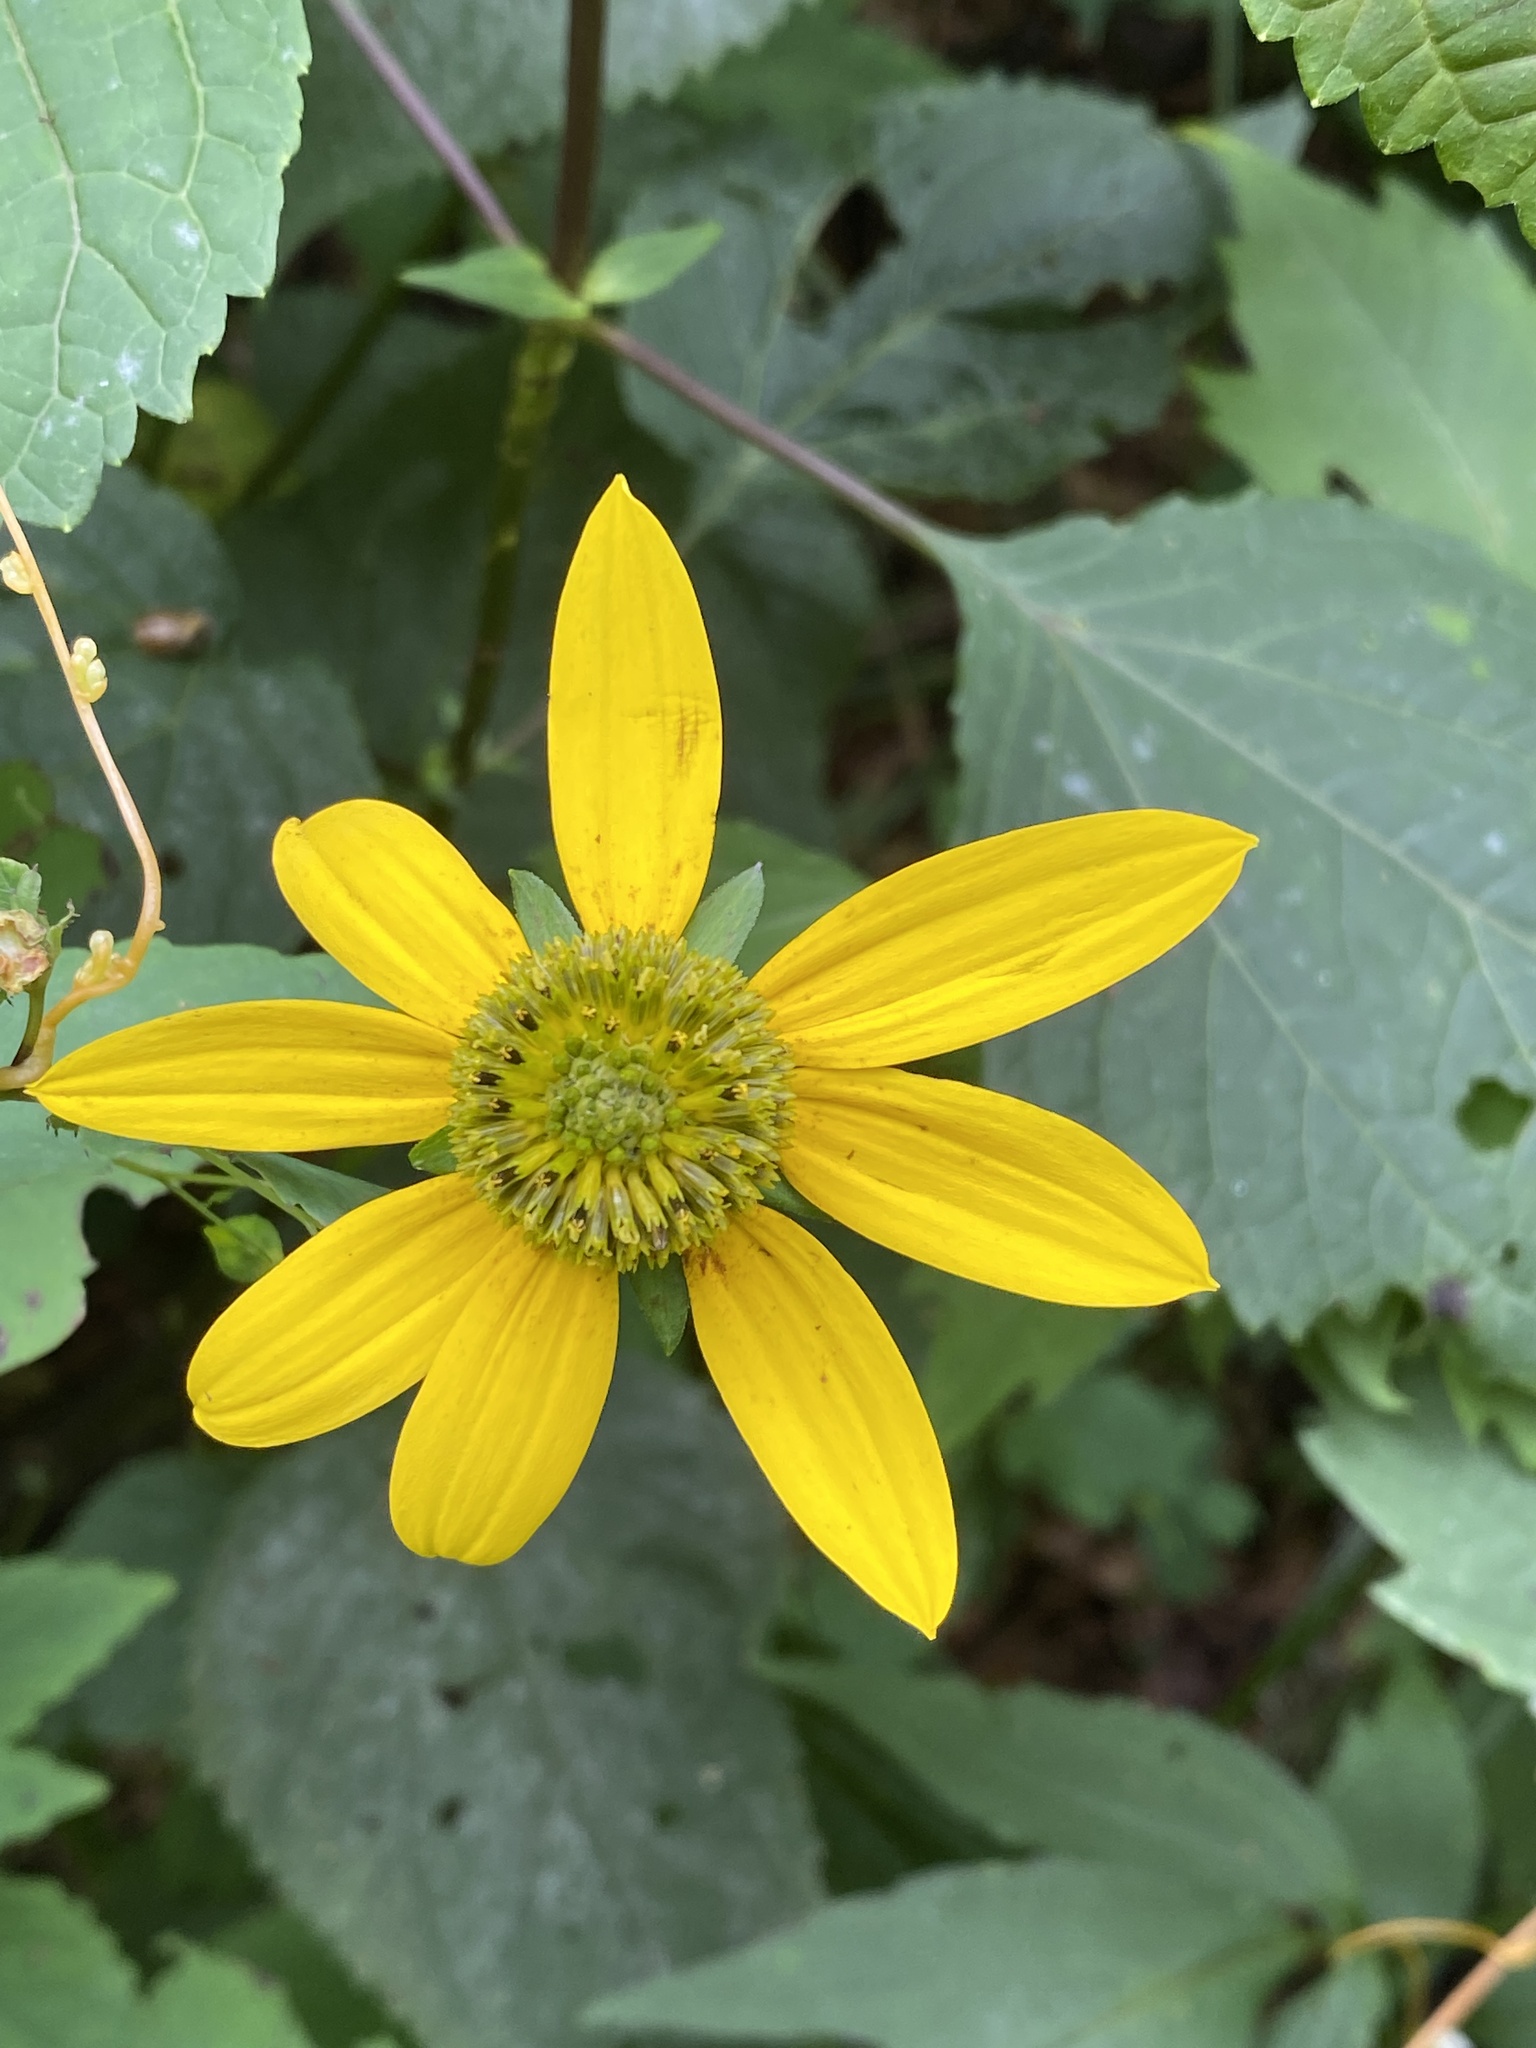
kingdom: Plantae
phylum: Tracheophyta
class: Magnoliopsida
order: Asterales
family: Asteraceae
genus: Rudbeckia
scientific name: Rudbeckia laciniata
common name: Coneflower
